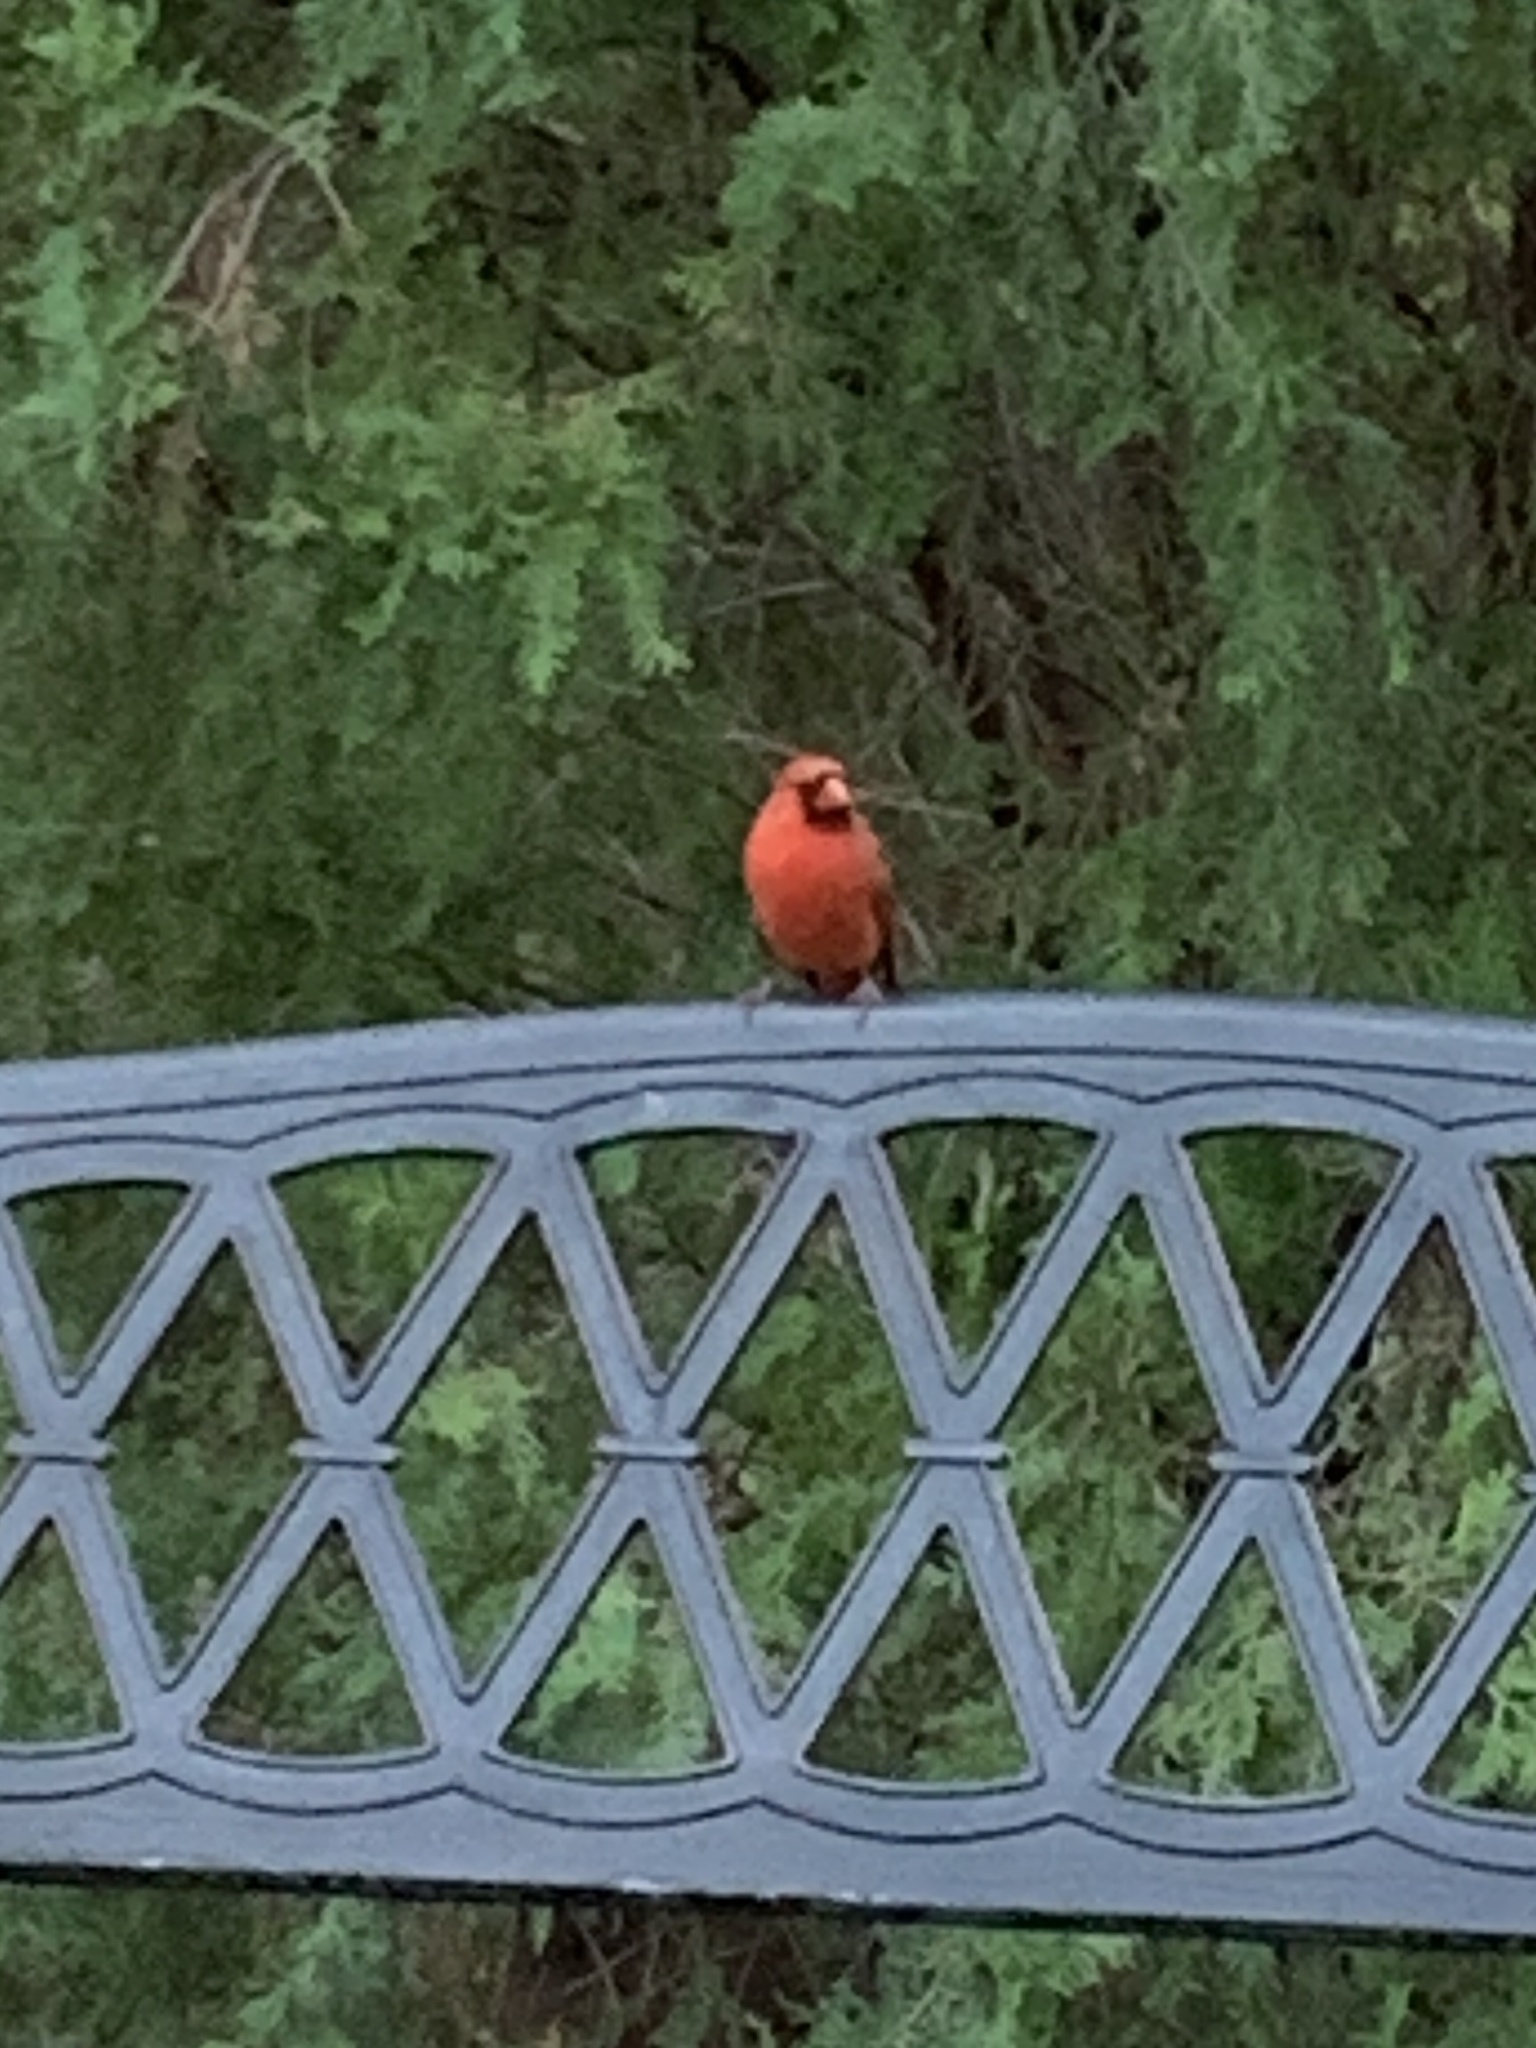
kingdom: Animalia
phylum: Chordata
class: Aves
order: Passeriformes
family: Cardinalidae
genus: Cardinalis
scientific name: Cardinalis cardinalis
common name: Northern cardinal
